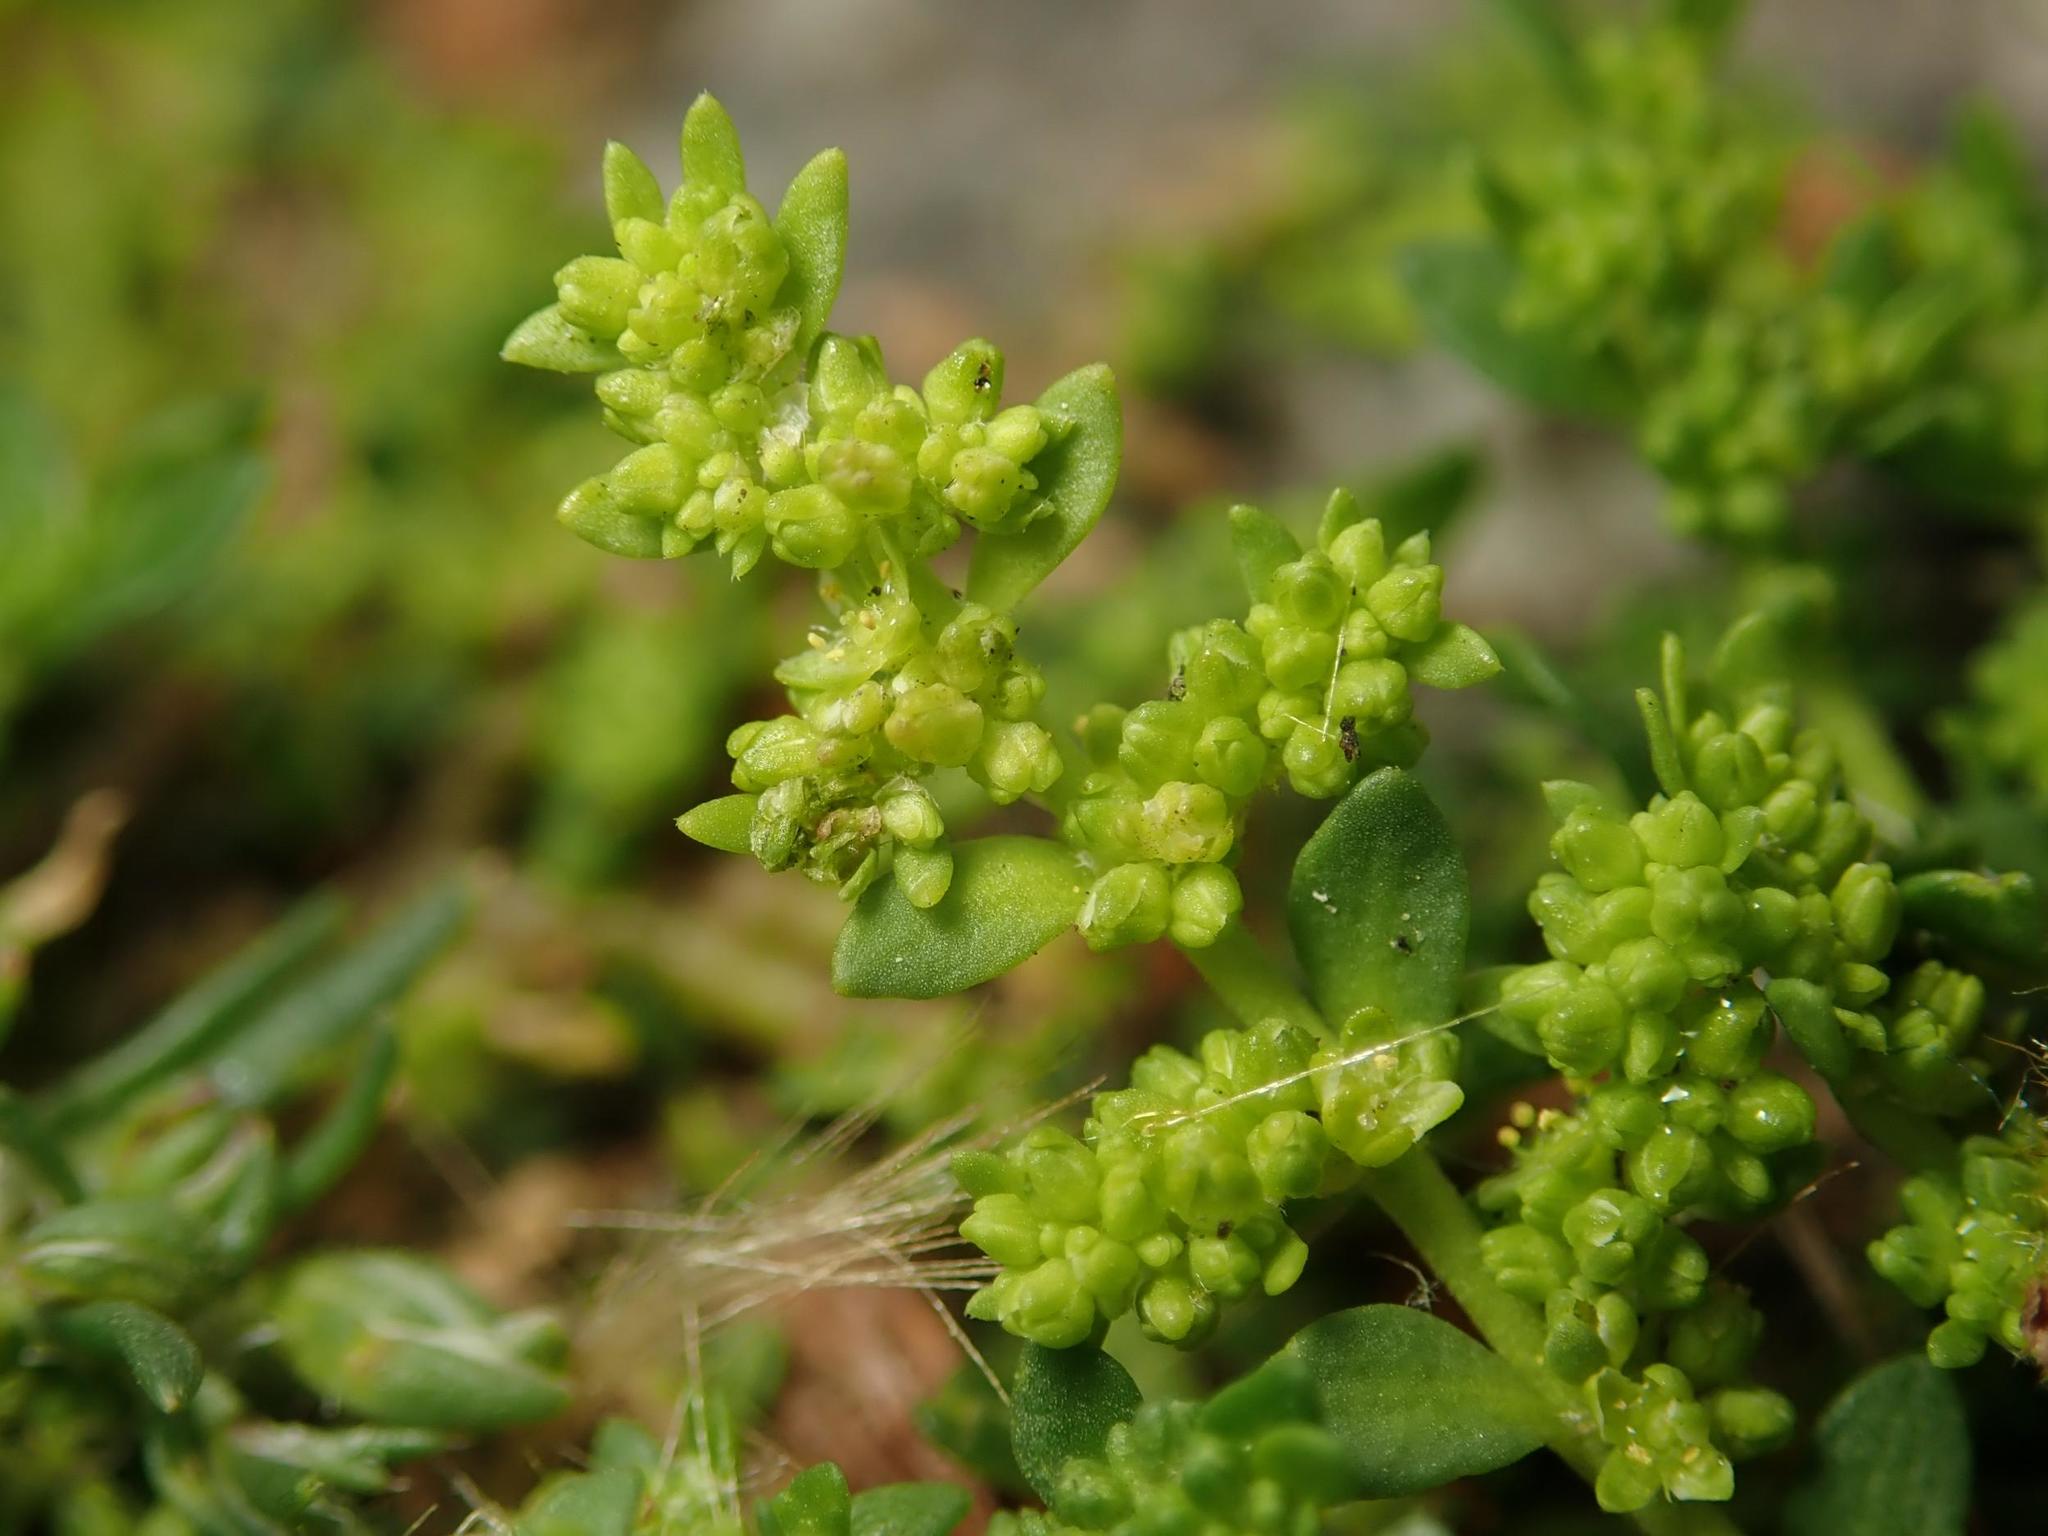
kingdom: Plantae
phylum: Tracheophyta
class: Magnoliopsida
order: Caryophyllales
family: Caryophyllaceae
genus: Herniaria
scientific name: Herniaria glabra
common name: Smooth rupturewort
